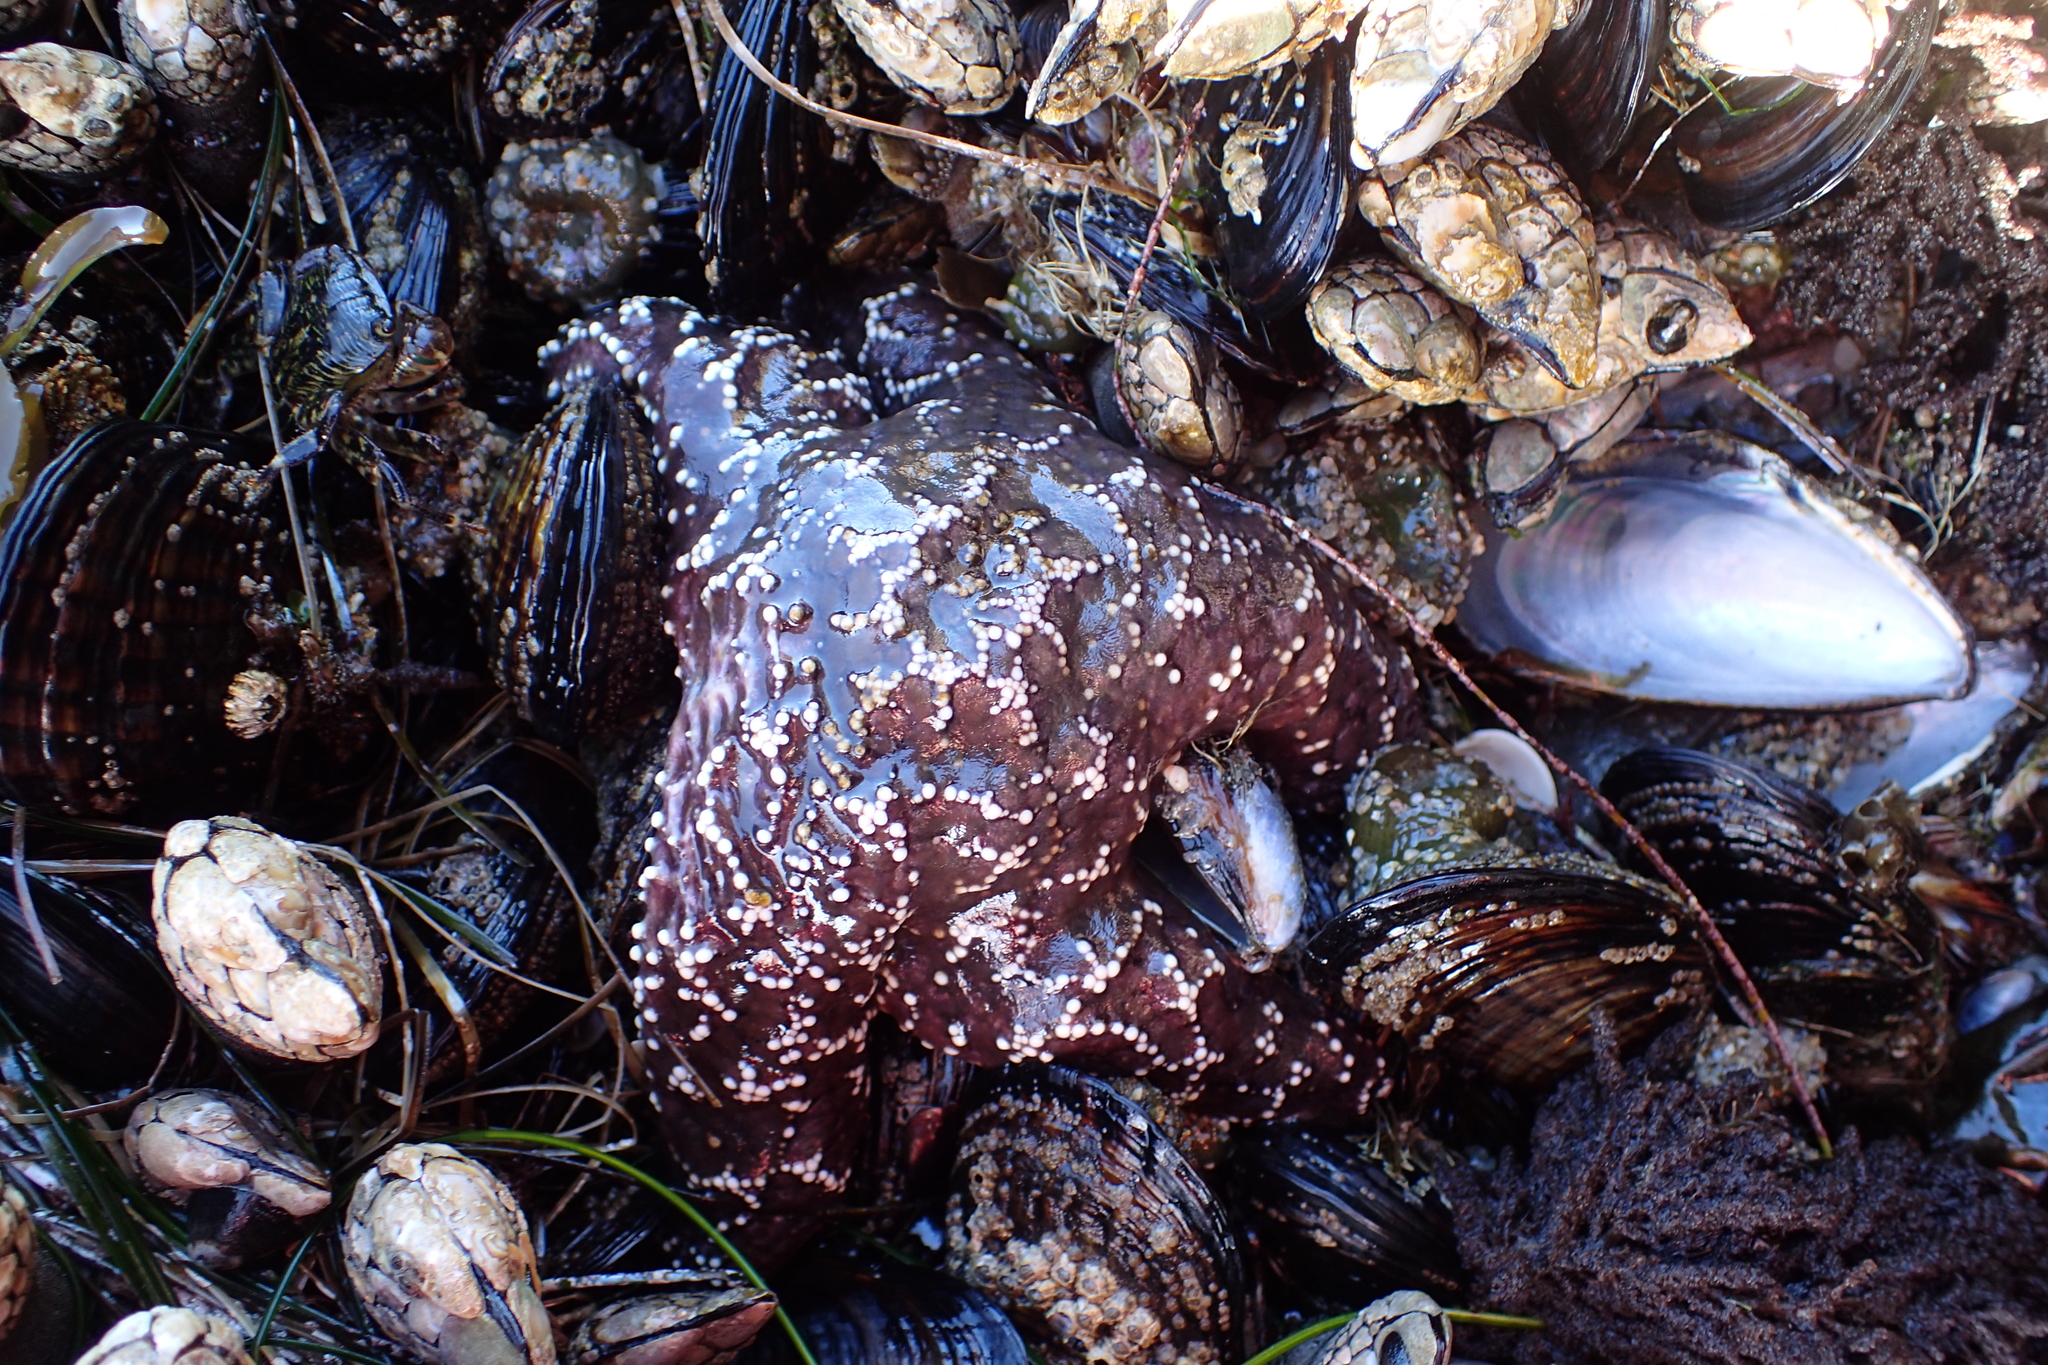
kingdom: Animalia
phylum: Echinodermata
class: Asteroidea
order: Forcipulatida
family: Asteriidae
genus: Pisaster
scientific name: Pisaster ochraceus
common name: Ochre stars
